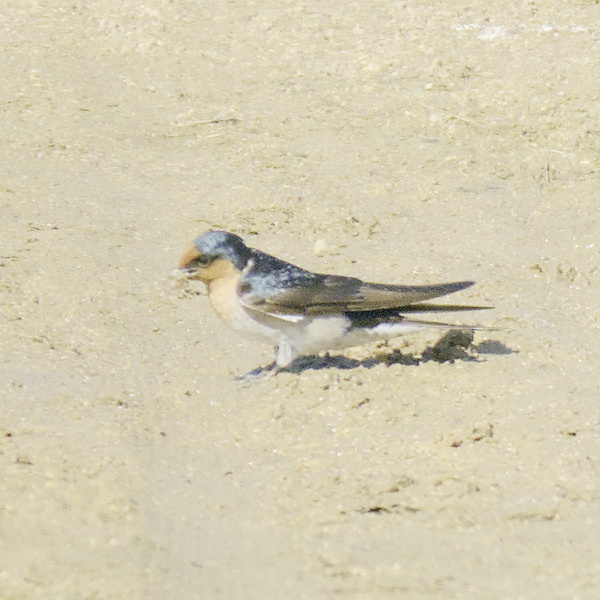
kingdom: Animalia
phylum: Chordata
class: Aves
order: Passeriformes
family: Hirundinidae
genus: Hirundo
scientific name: Hirundo neoxena
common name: Welcome swallow
